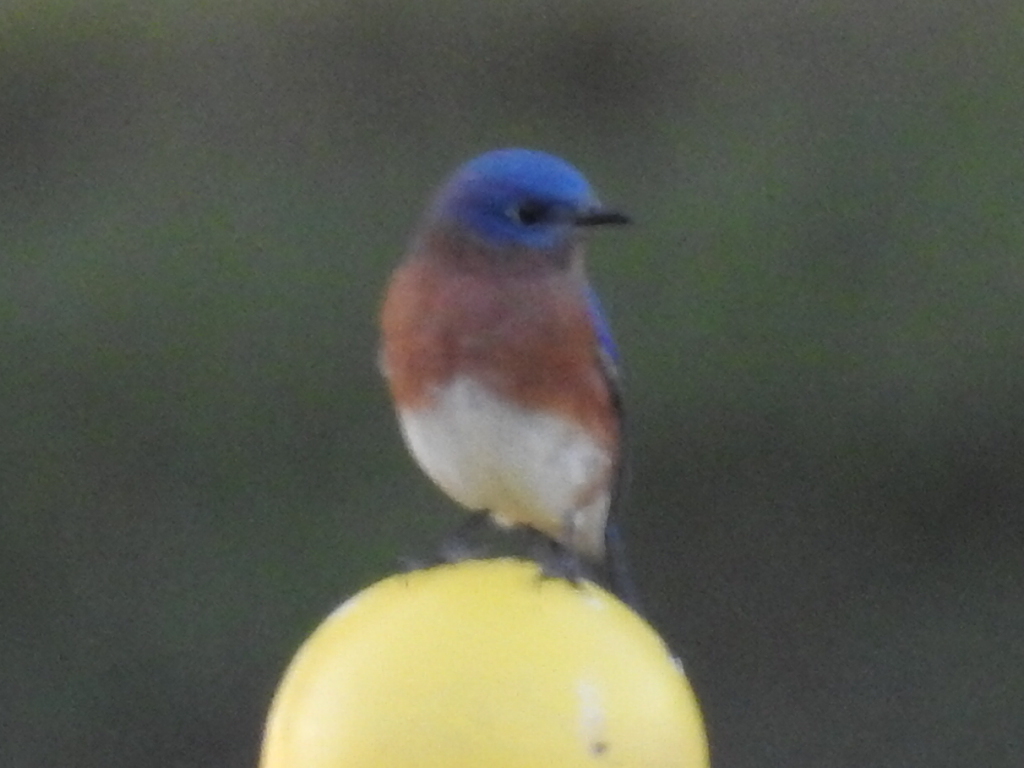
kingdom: Animalia
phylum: Chordata
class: Aves
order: Passeriformes
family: Turdidae
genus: Sialia
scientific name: Sialia sialis
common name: Eastern bluebird
